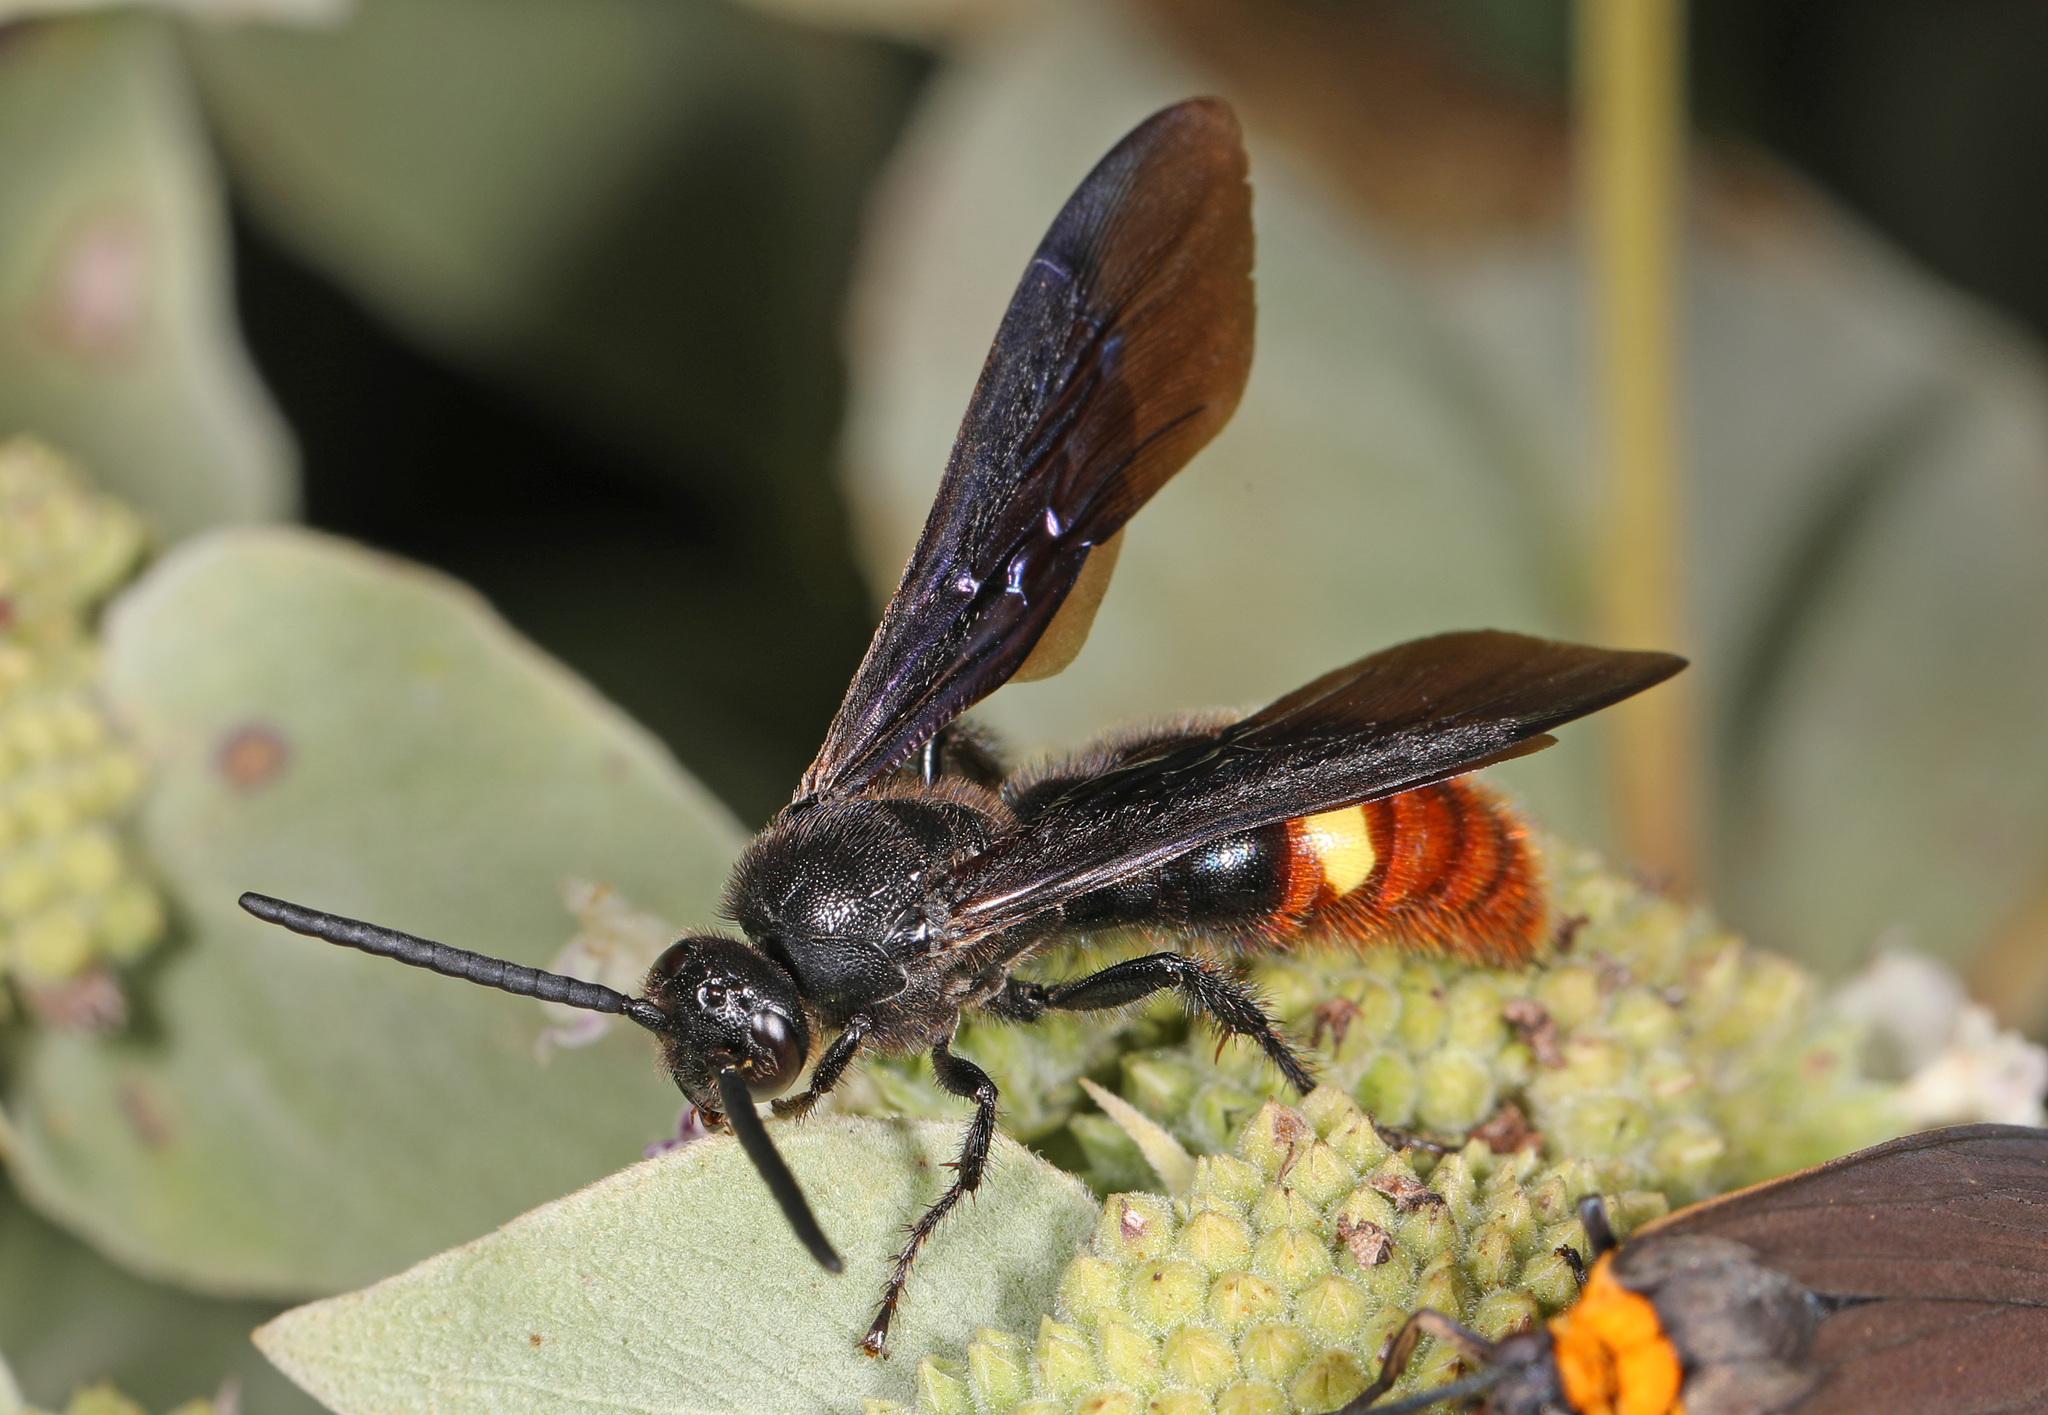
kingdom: Animalia
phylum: Arthropoda
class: Insecta
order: Hymenoptera
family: Scoliidae
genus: Scolia
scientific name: Scolia dubia
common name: Blue-winged scoliid wasp
